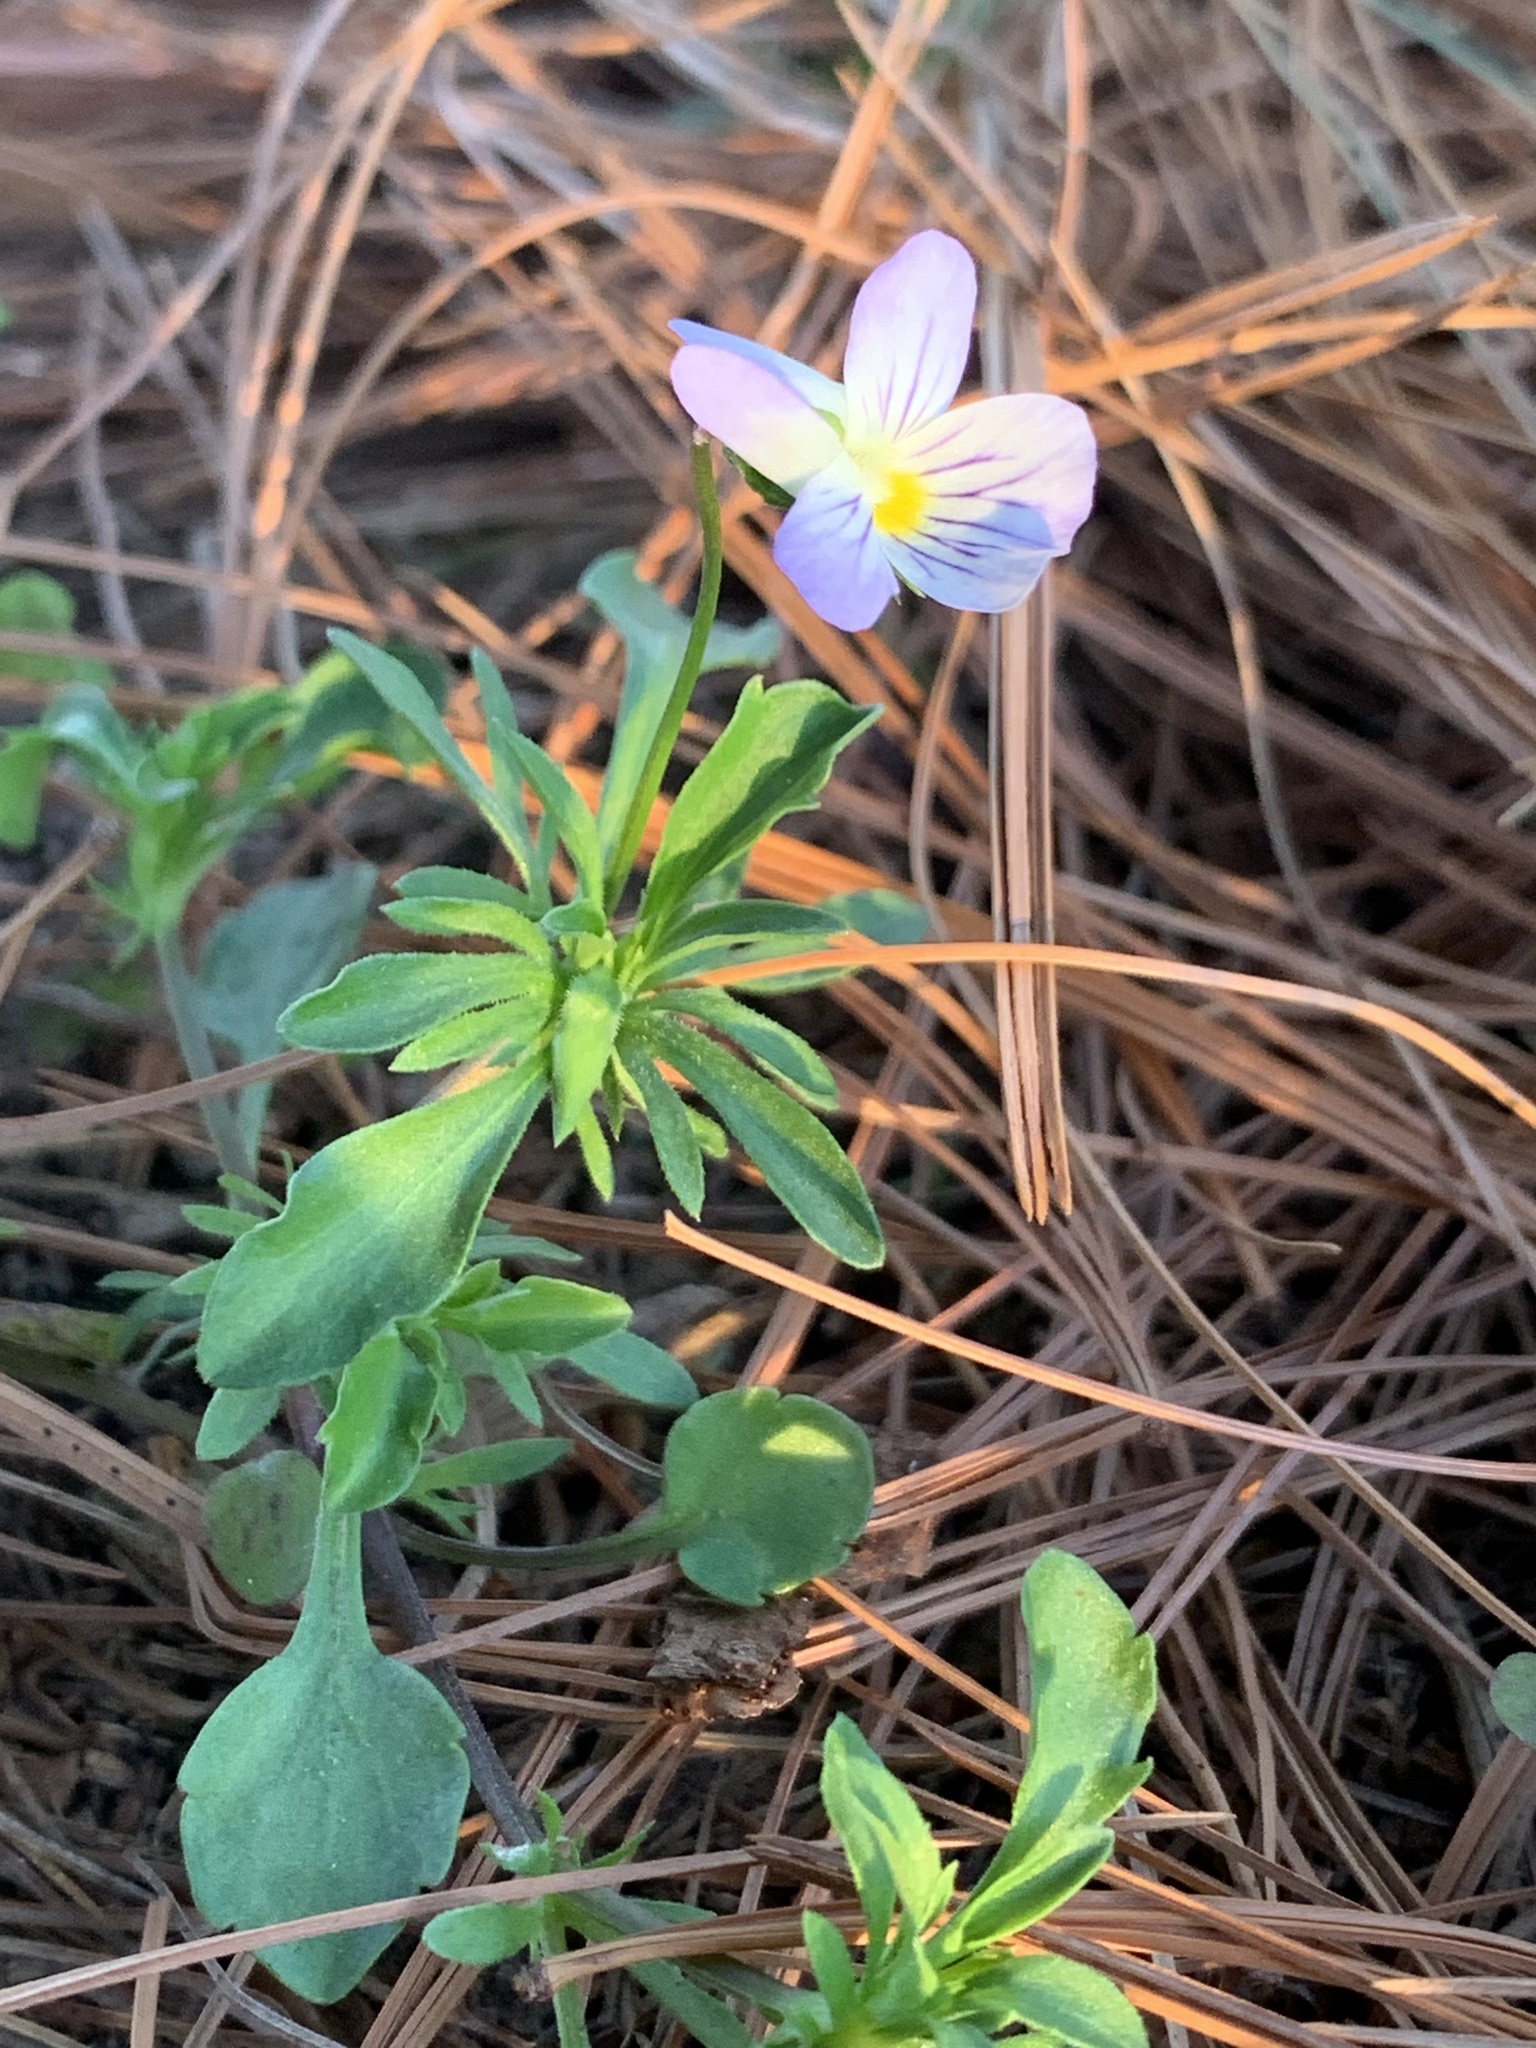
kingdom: Plantae
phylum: Tracheophyta
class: Magnoliopsida
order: Malpighiales
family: Violaceae
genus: Viola
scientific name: Viola rafinesquei
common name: American field pansy
